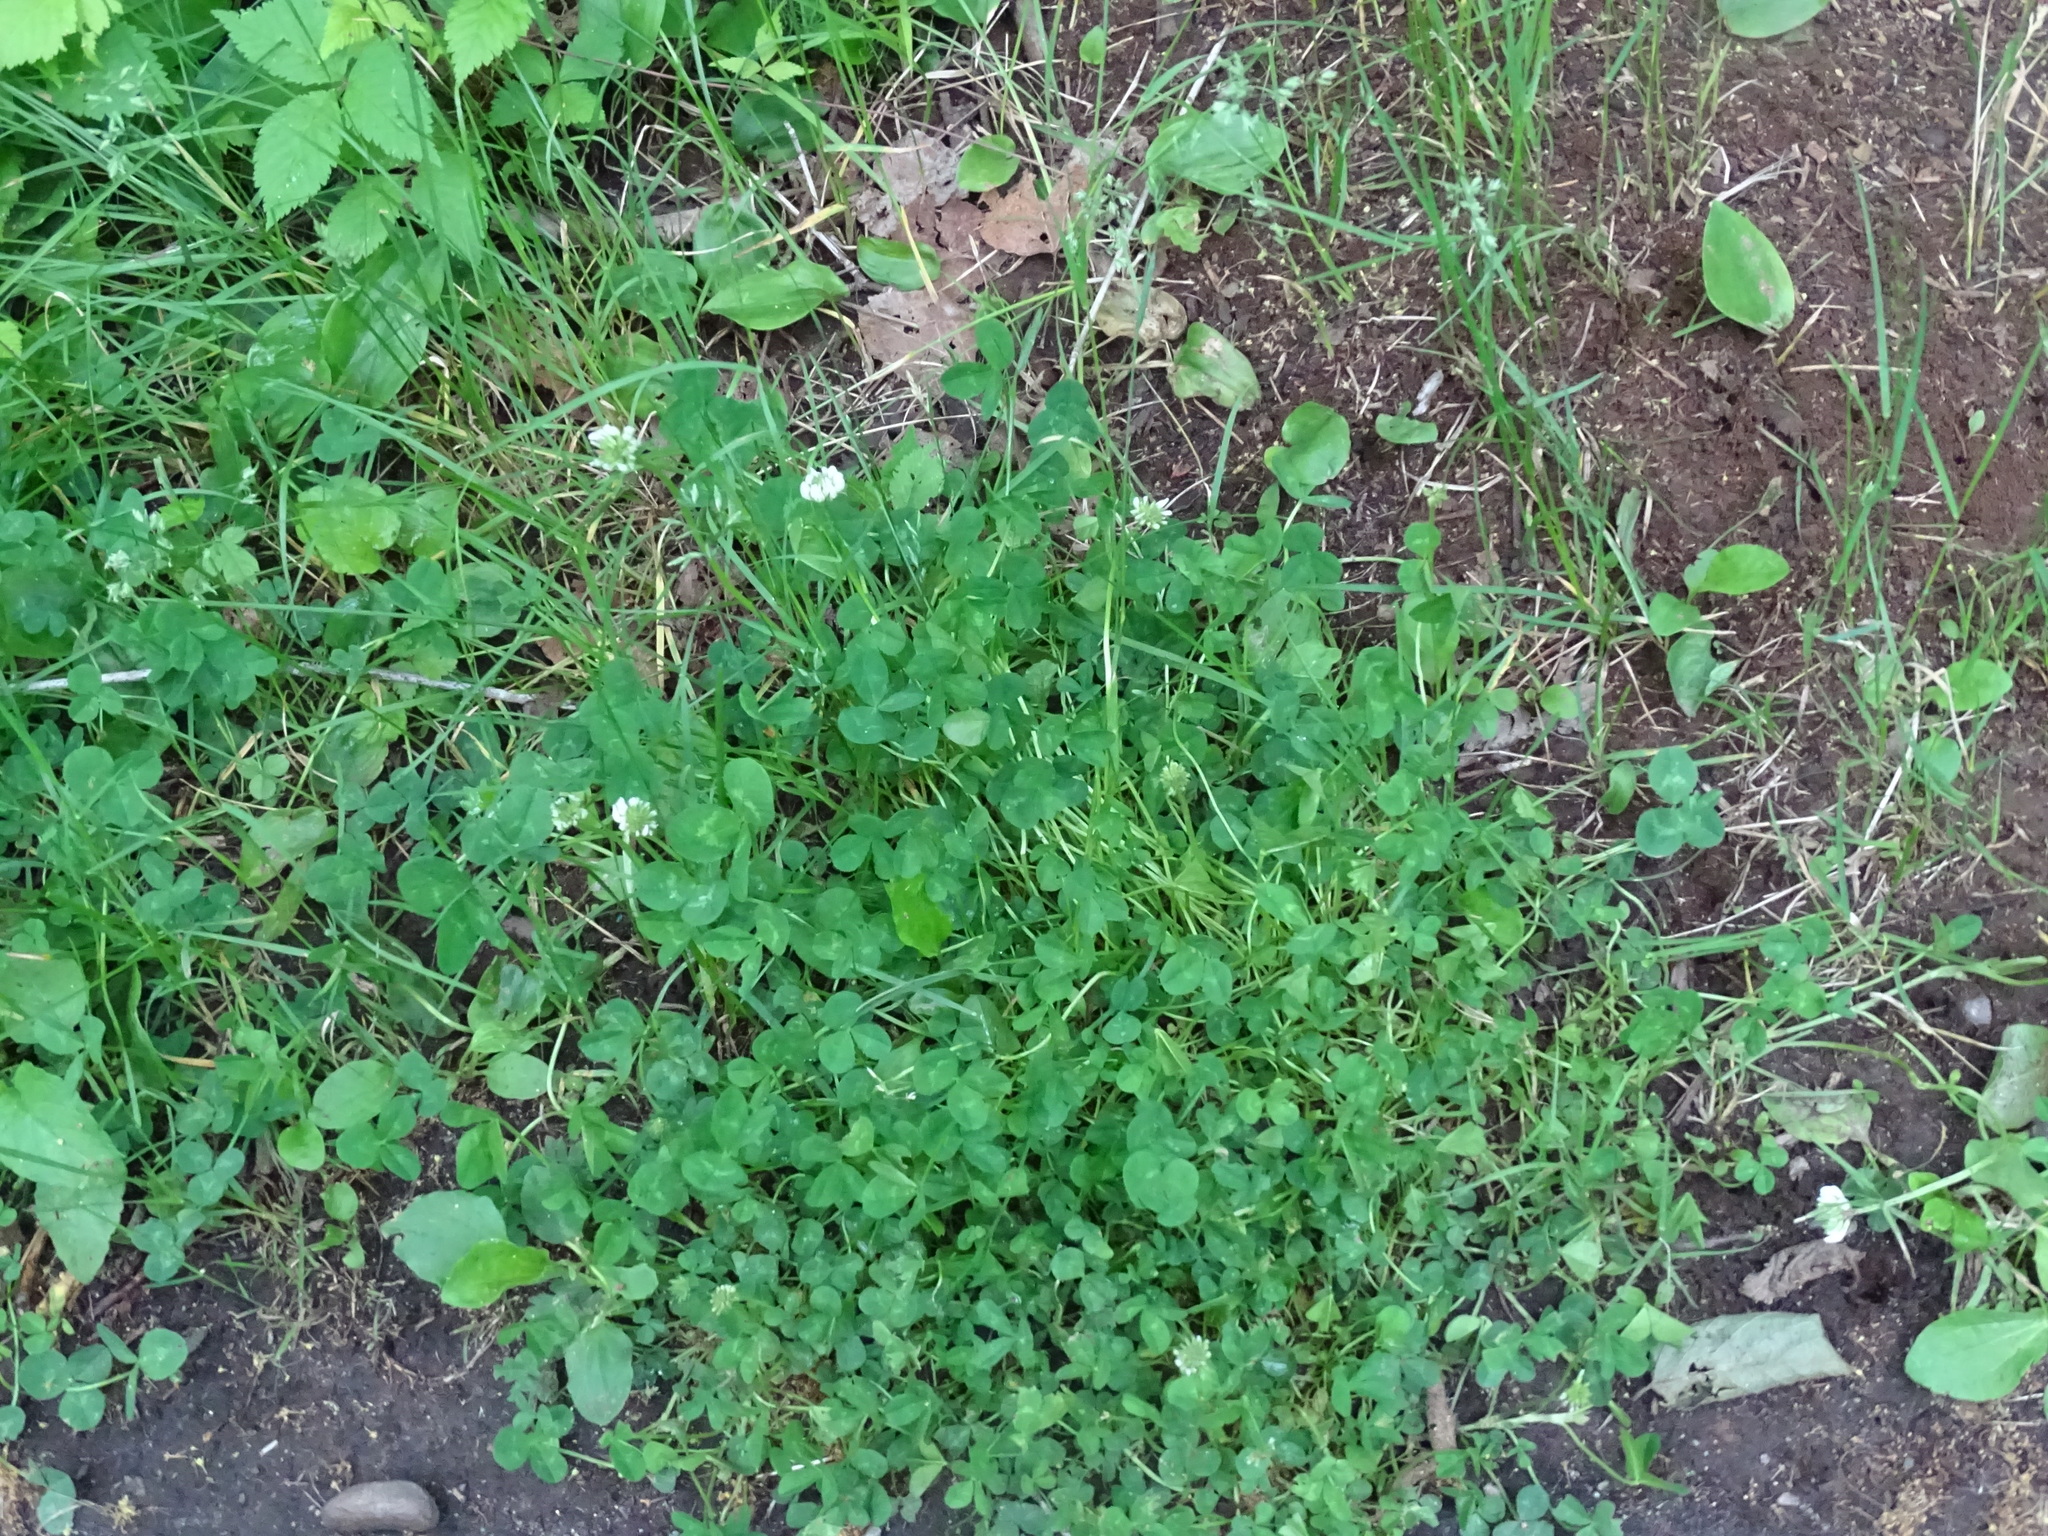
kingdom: Plantae
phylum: Tracheophyta
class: Magnoliopsida
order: Fabales
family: Fabaceae
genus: Trifolium
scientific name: Trifolium repens
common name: White clover
